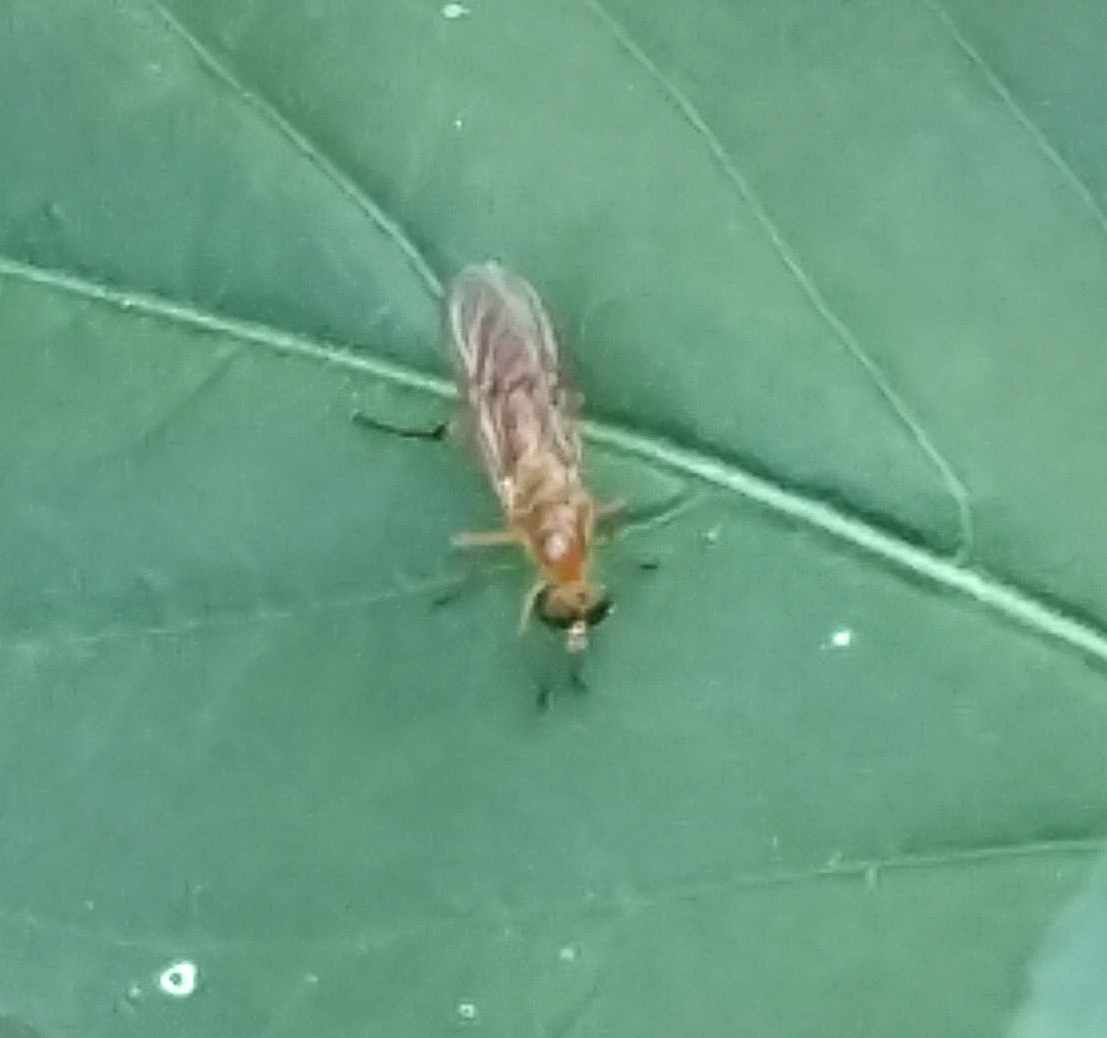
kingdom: Animalia
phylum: Arthropoda
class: Insecta
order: Diptera
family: Stratiomyidae
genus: Ptecticus
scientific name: Ptecticus trivittatus
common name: Compost fly
